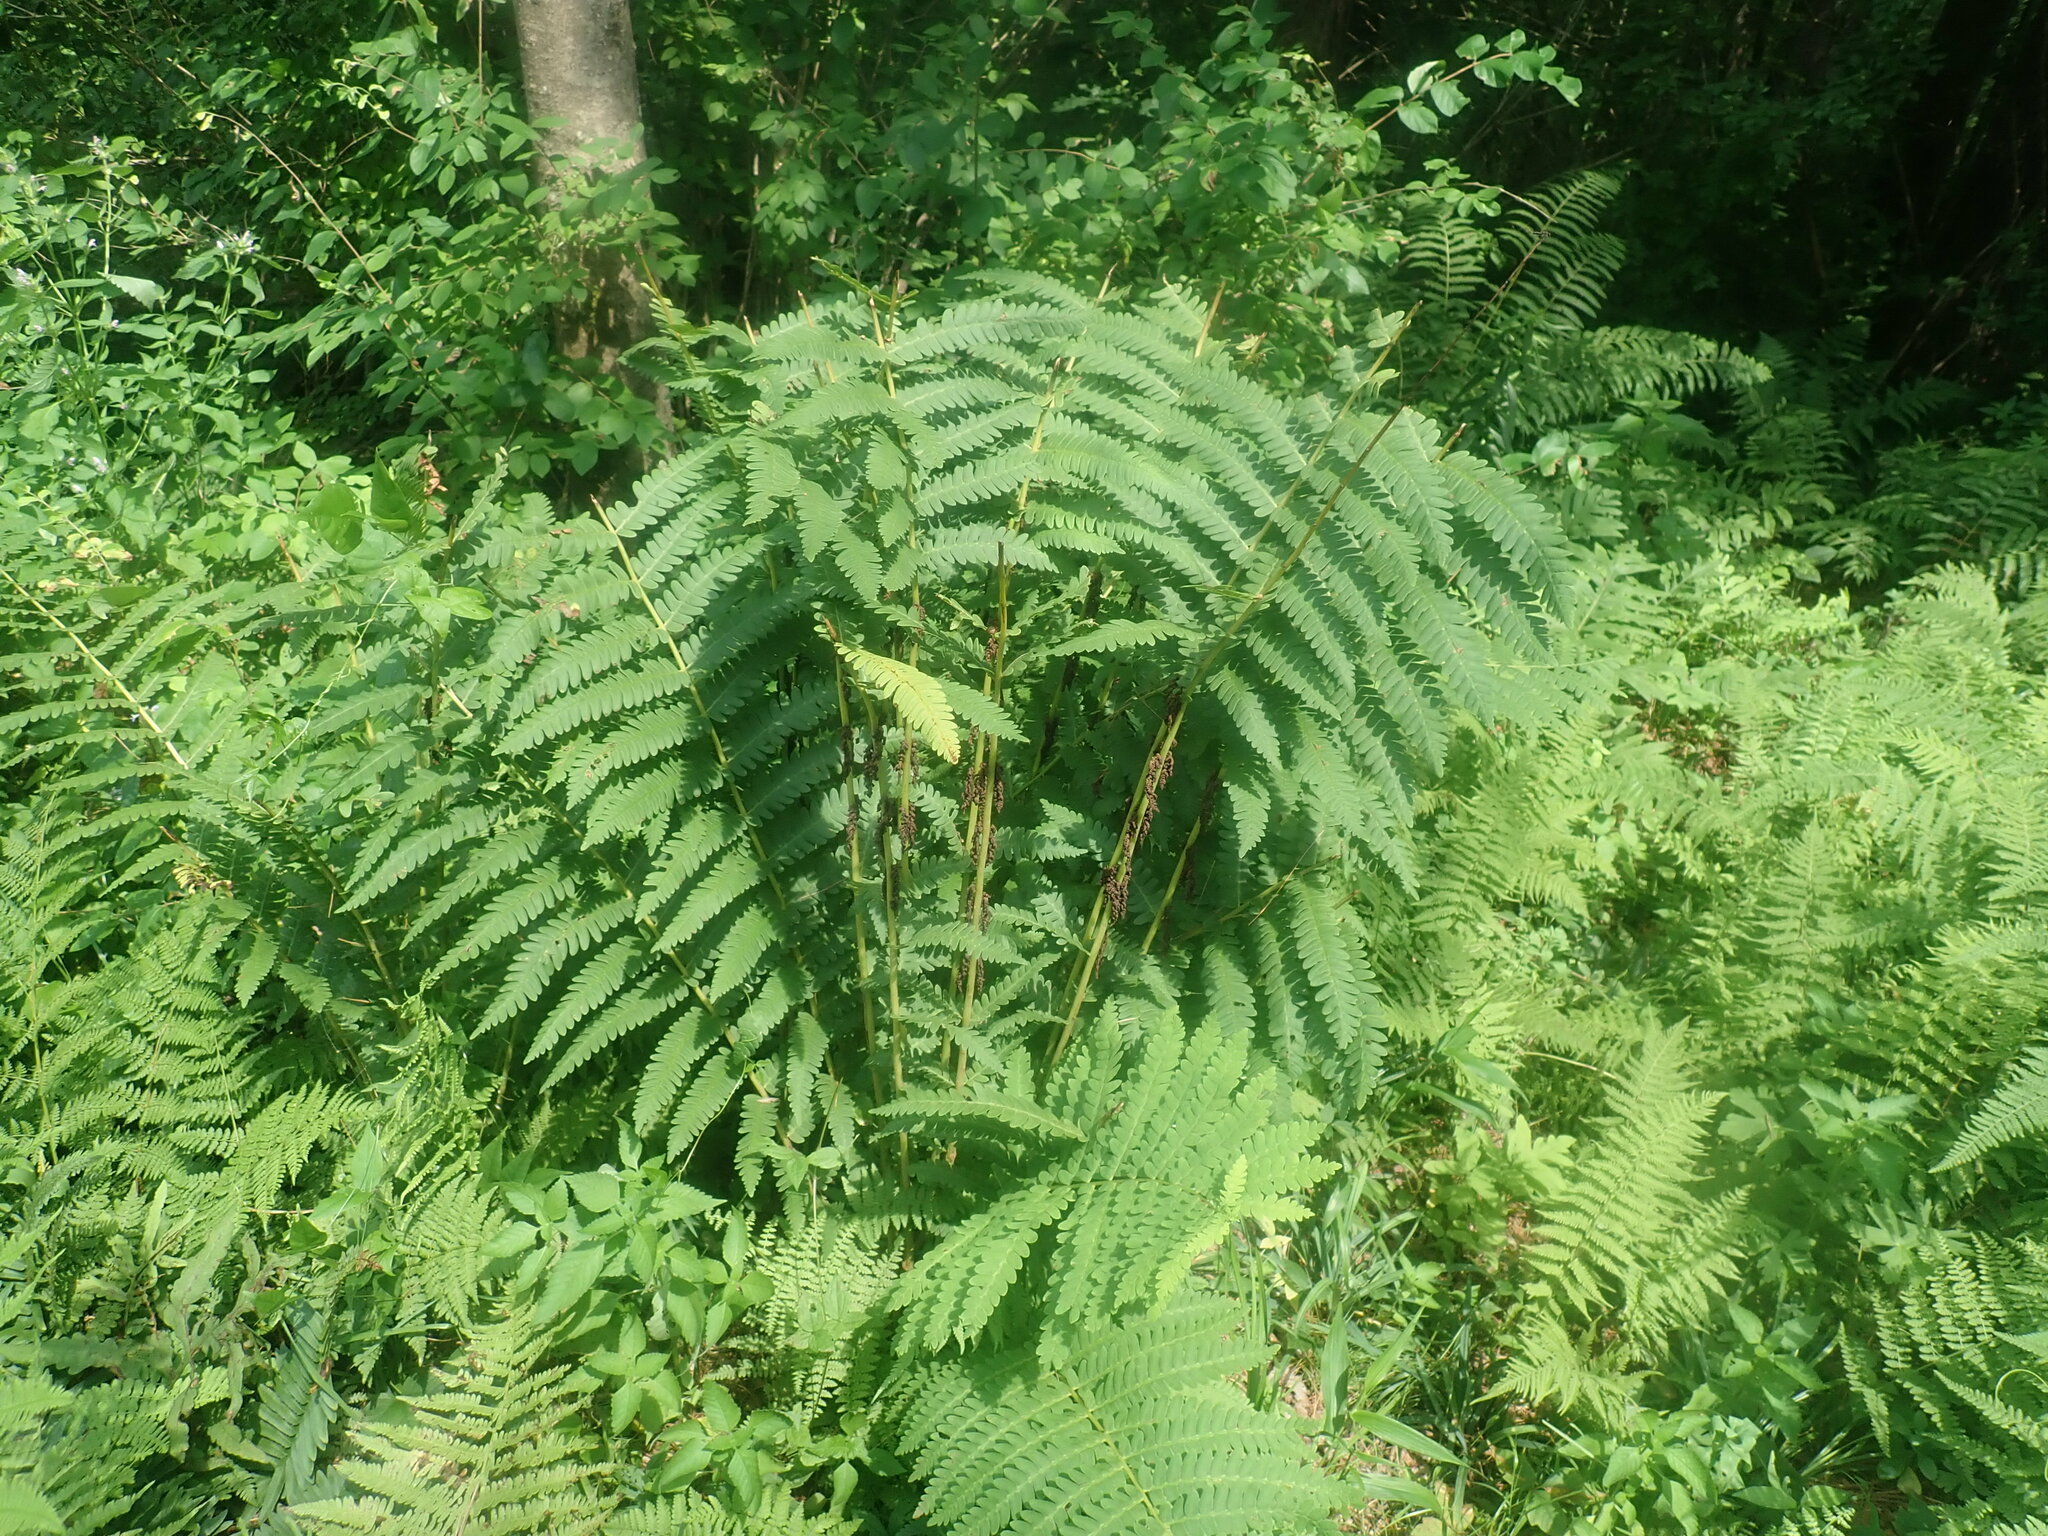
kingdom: Plantae
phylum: Tracheophyta
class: Polypodiopsida
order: Osmundales
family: Osmundaceae
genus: Claytosmunda
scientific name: Claytosmunda claytoniana
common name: Clayton's fern
